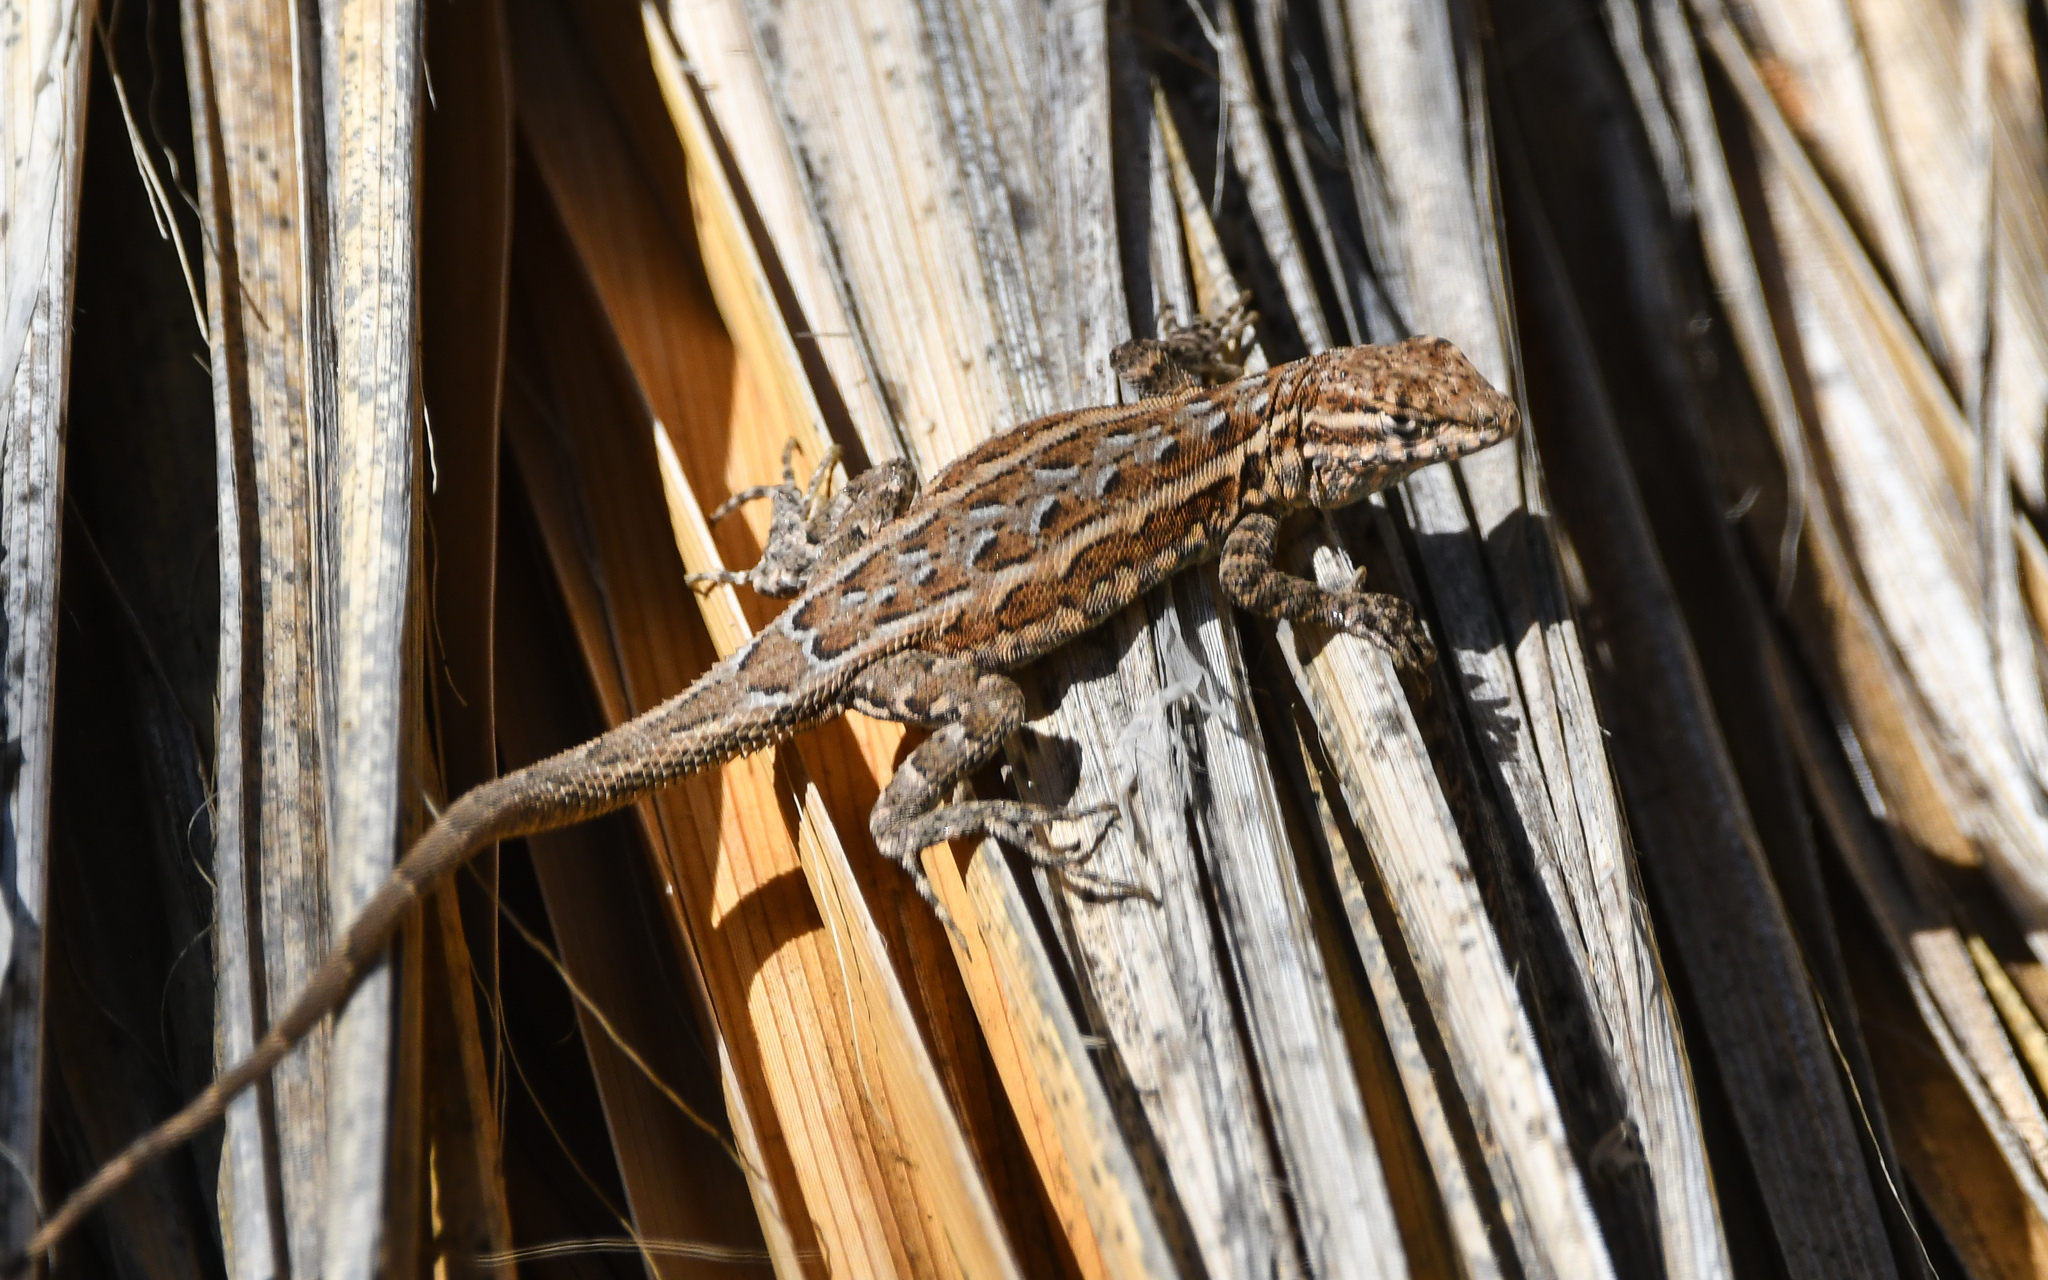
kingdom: Animalia
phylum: Chordata
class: Squamata
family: Phrynosomatidae
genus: Uta
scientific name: Uta stansburiana
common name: Side-blotched lizard
